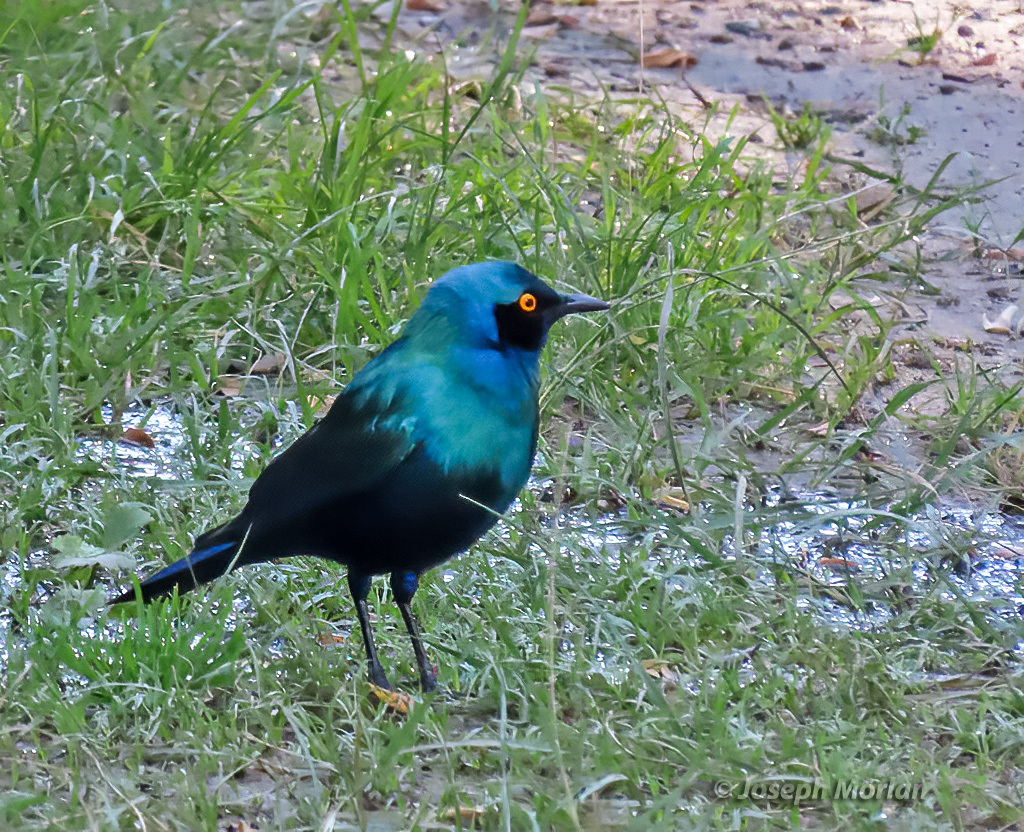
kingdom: Animalia
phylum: Chordata
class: Aves
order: Passeriformes
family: Sturnidae
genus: Lamprotornis
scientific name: Lamprotornis chalybaeus
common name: Greater blue-eared starling
